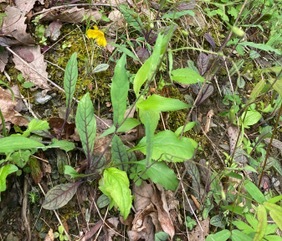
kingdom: Plantae
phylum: Tracheophyta
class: Magnoliopsida
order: Asterales
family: Asteraceae
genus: Hieracium
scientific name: Hieracium venosum
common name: Rattlesnake hawkweed
